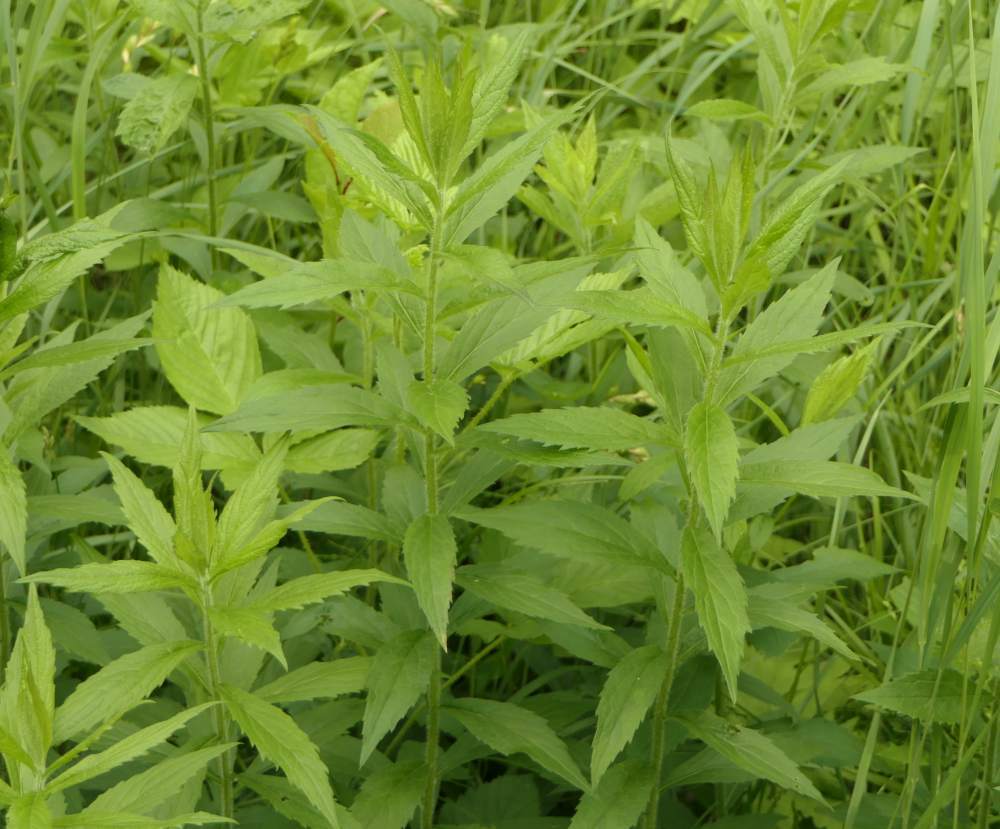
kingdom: Plantae
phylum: Tracheophyta
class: Magnoliopsida
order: Asterales
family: Asteraceae
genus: Solidago
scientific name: Solidago rugosa
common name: Rough-stemmed goldenrod
